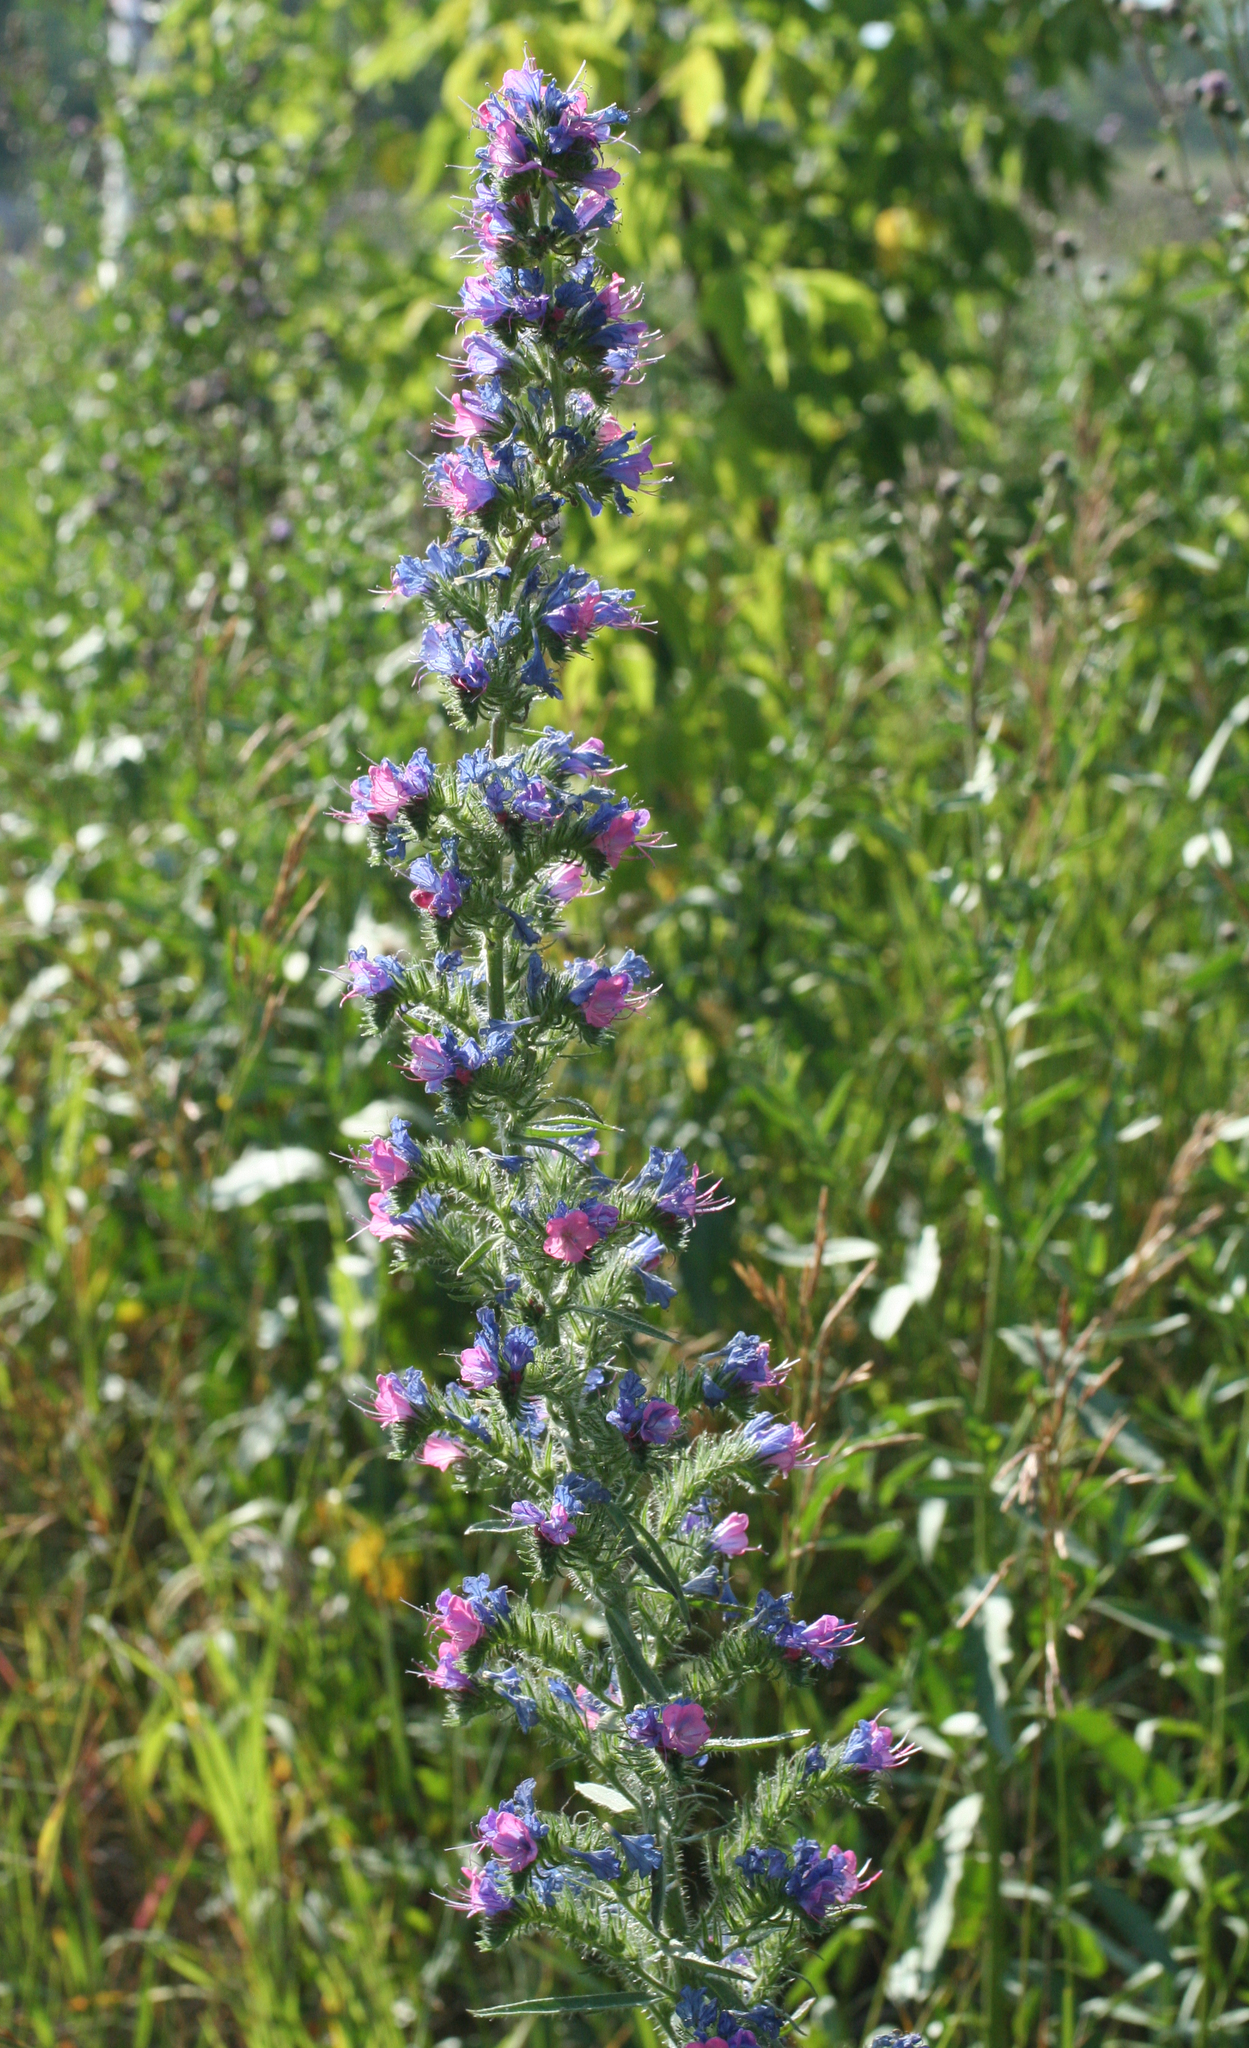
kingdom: Plantae
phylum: Tracheophyta
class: Magnoliopsida
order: Boraginales
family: Boraginaceae
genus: Echium
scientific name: Echium vulgare
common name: Common viper's bugloss
